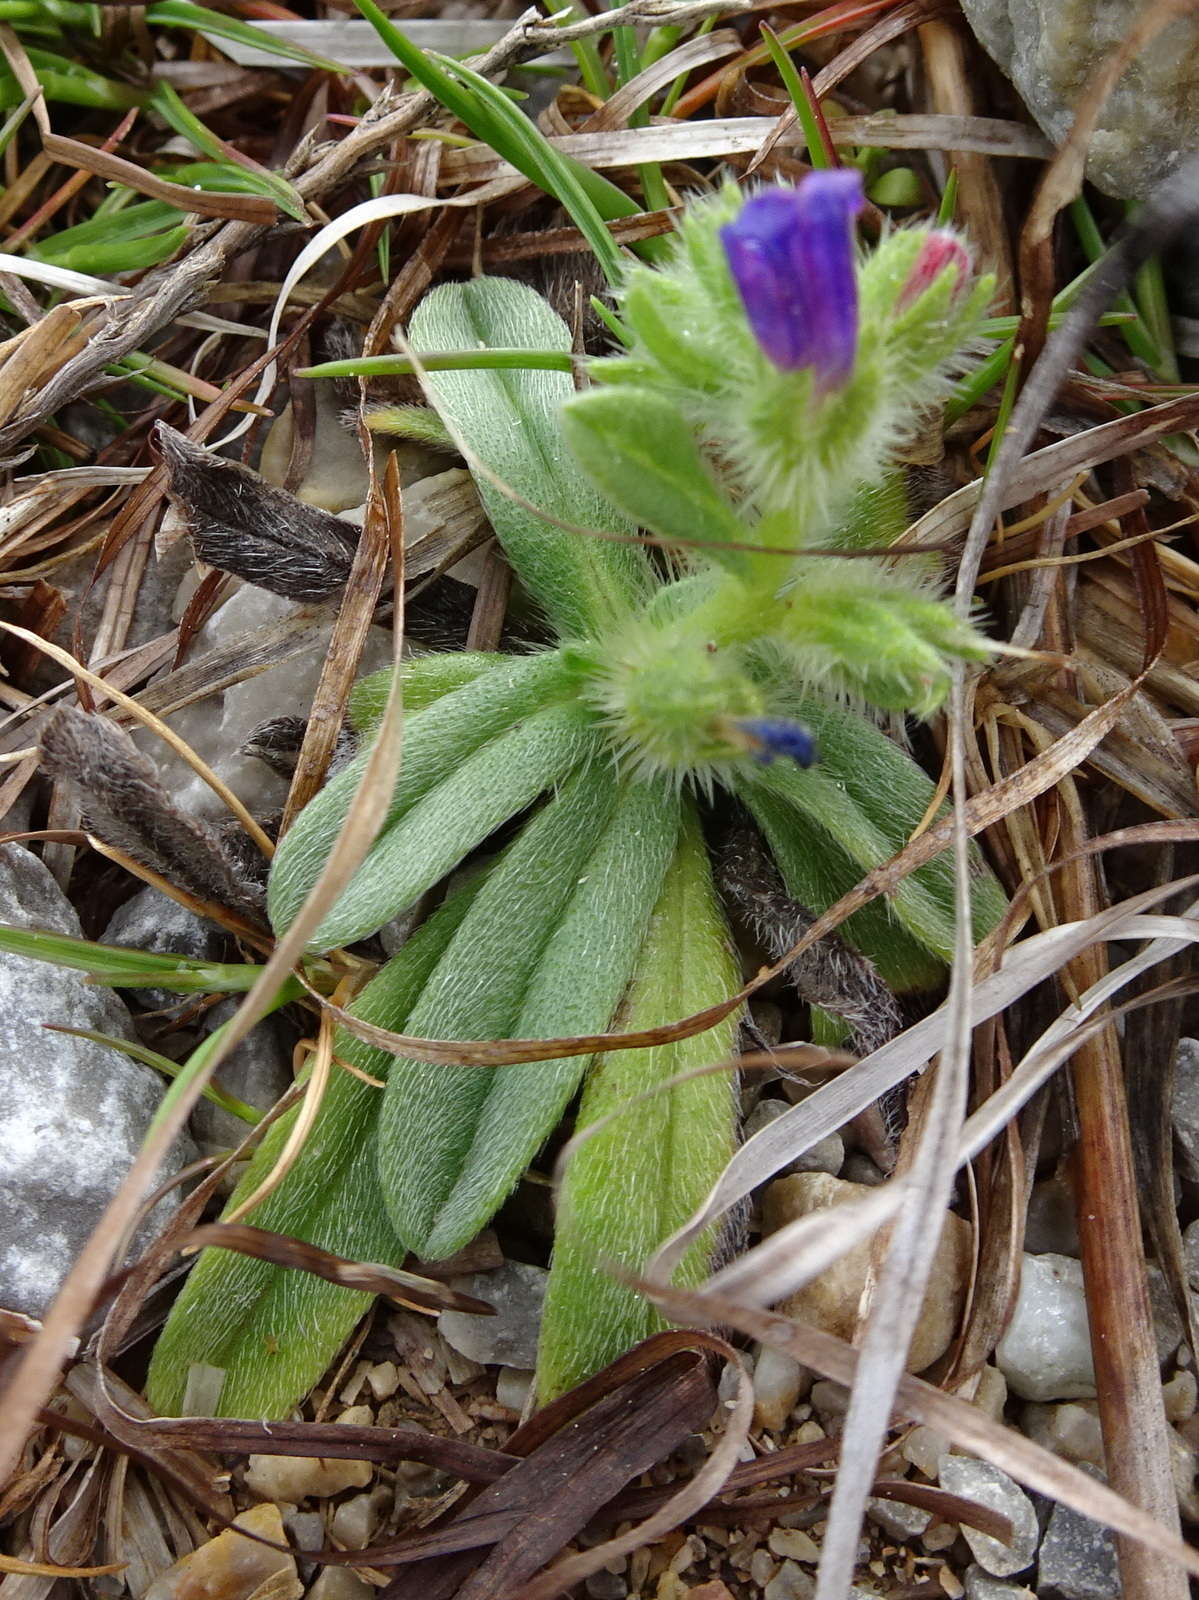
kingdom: Plantae
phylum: Tracheophyta
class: Magnoliopsida
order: Boraginales
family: Boraginaceae
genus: Echium
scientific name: Echium arenarium
